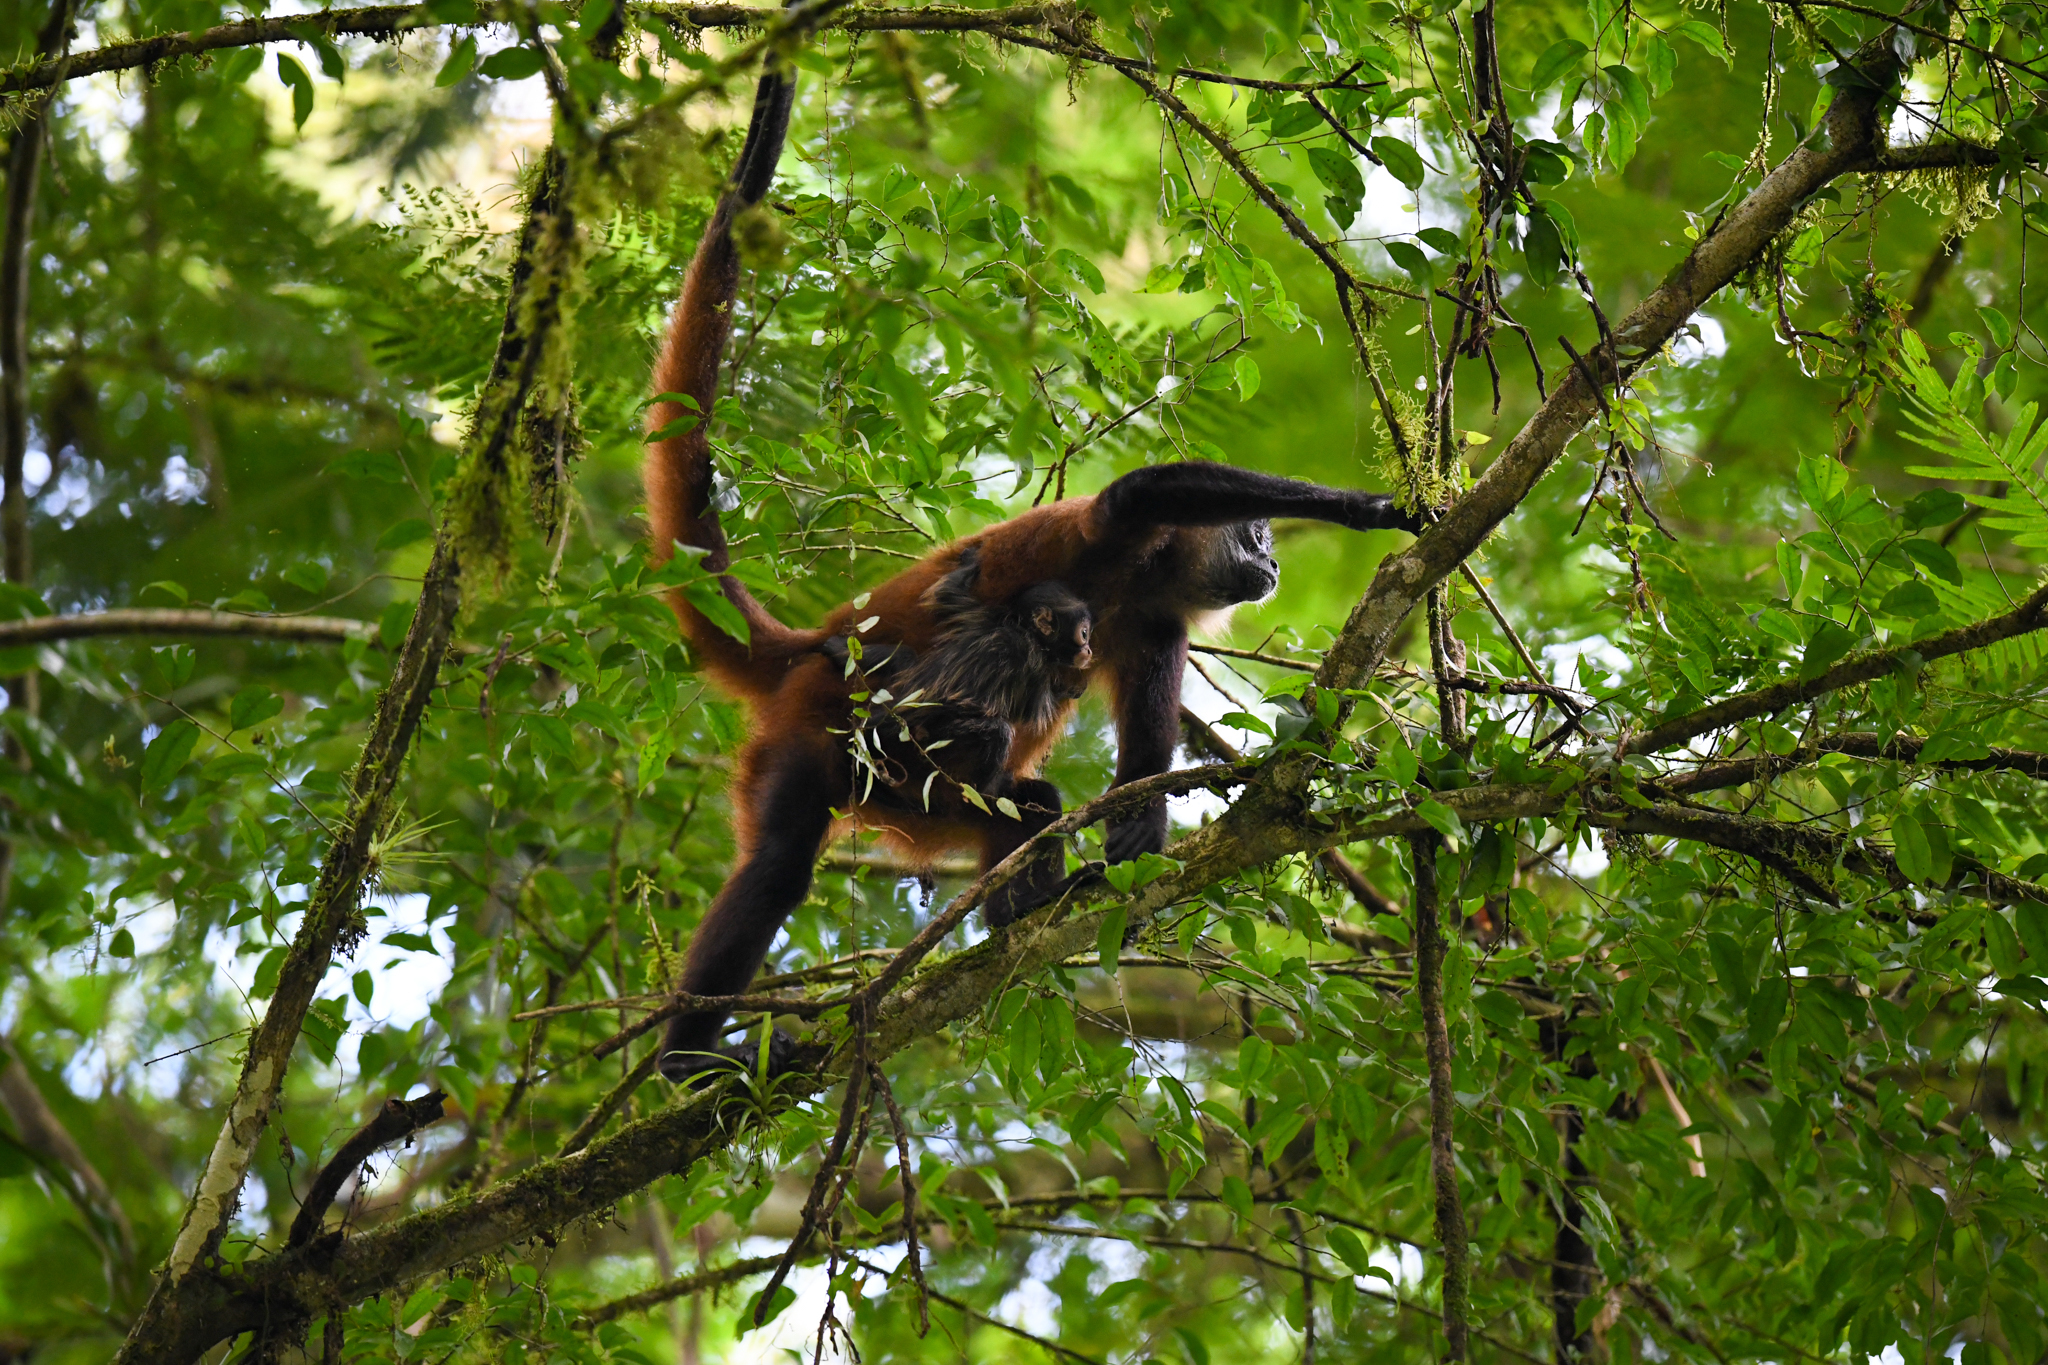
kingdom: Animalia
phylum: Chordata
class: Mammalia
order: Primates
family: Atelidae
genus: Ateles
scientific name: Ateles geoffroyi
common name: Black-handed spider monkey
